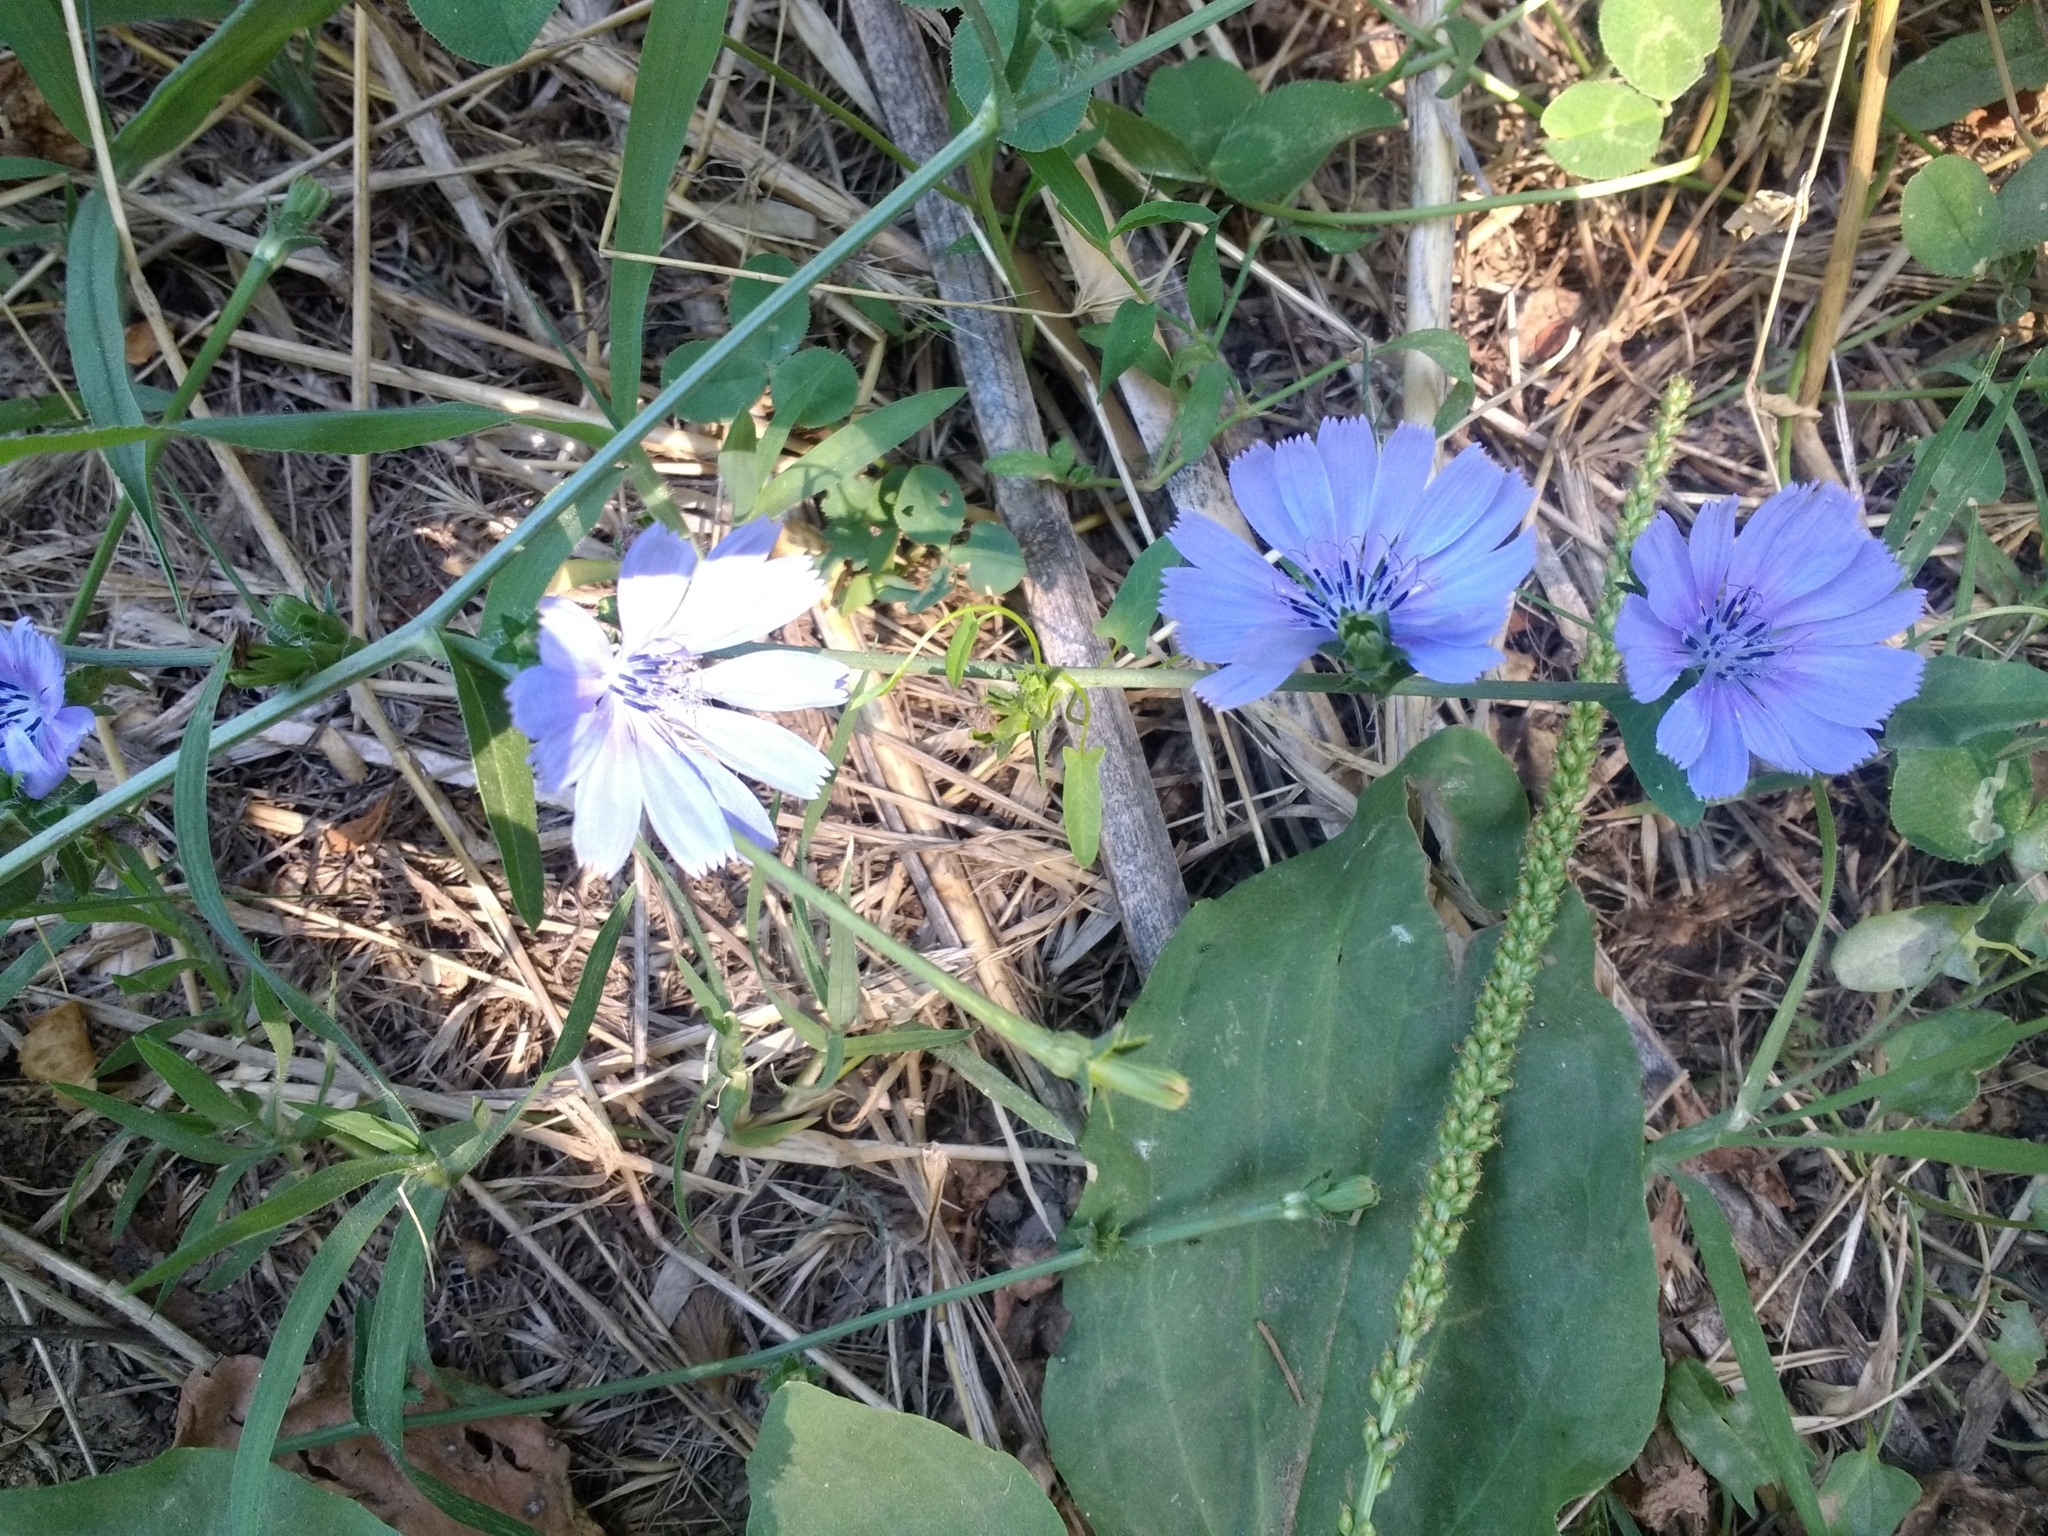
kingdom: Plantae
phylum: Tracheophyta
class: Magnoliopsida
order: Asterales
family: Asteraceae
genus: Cichorium
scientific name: Cichorium intybus
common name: Chicory
